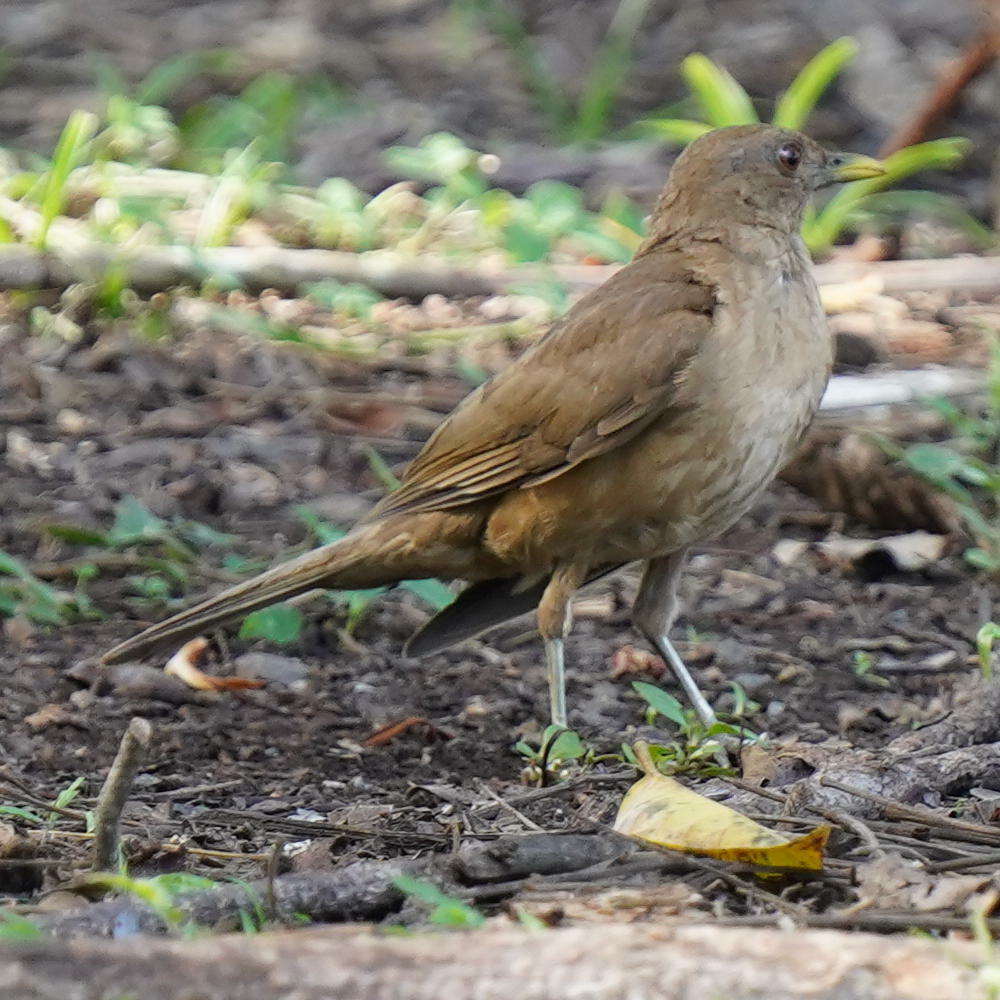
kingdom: Animalia
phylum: Chordata
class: Aves
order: Passeriformes
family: Turdidae
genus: Turdus
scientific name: Turdus grayi
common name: Clay-colored thrush
